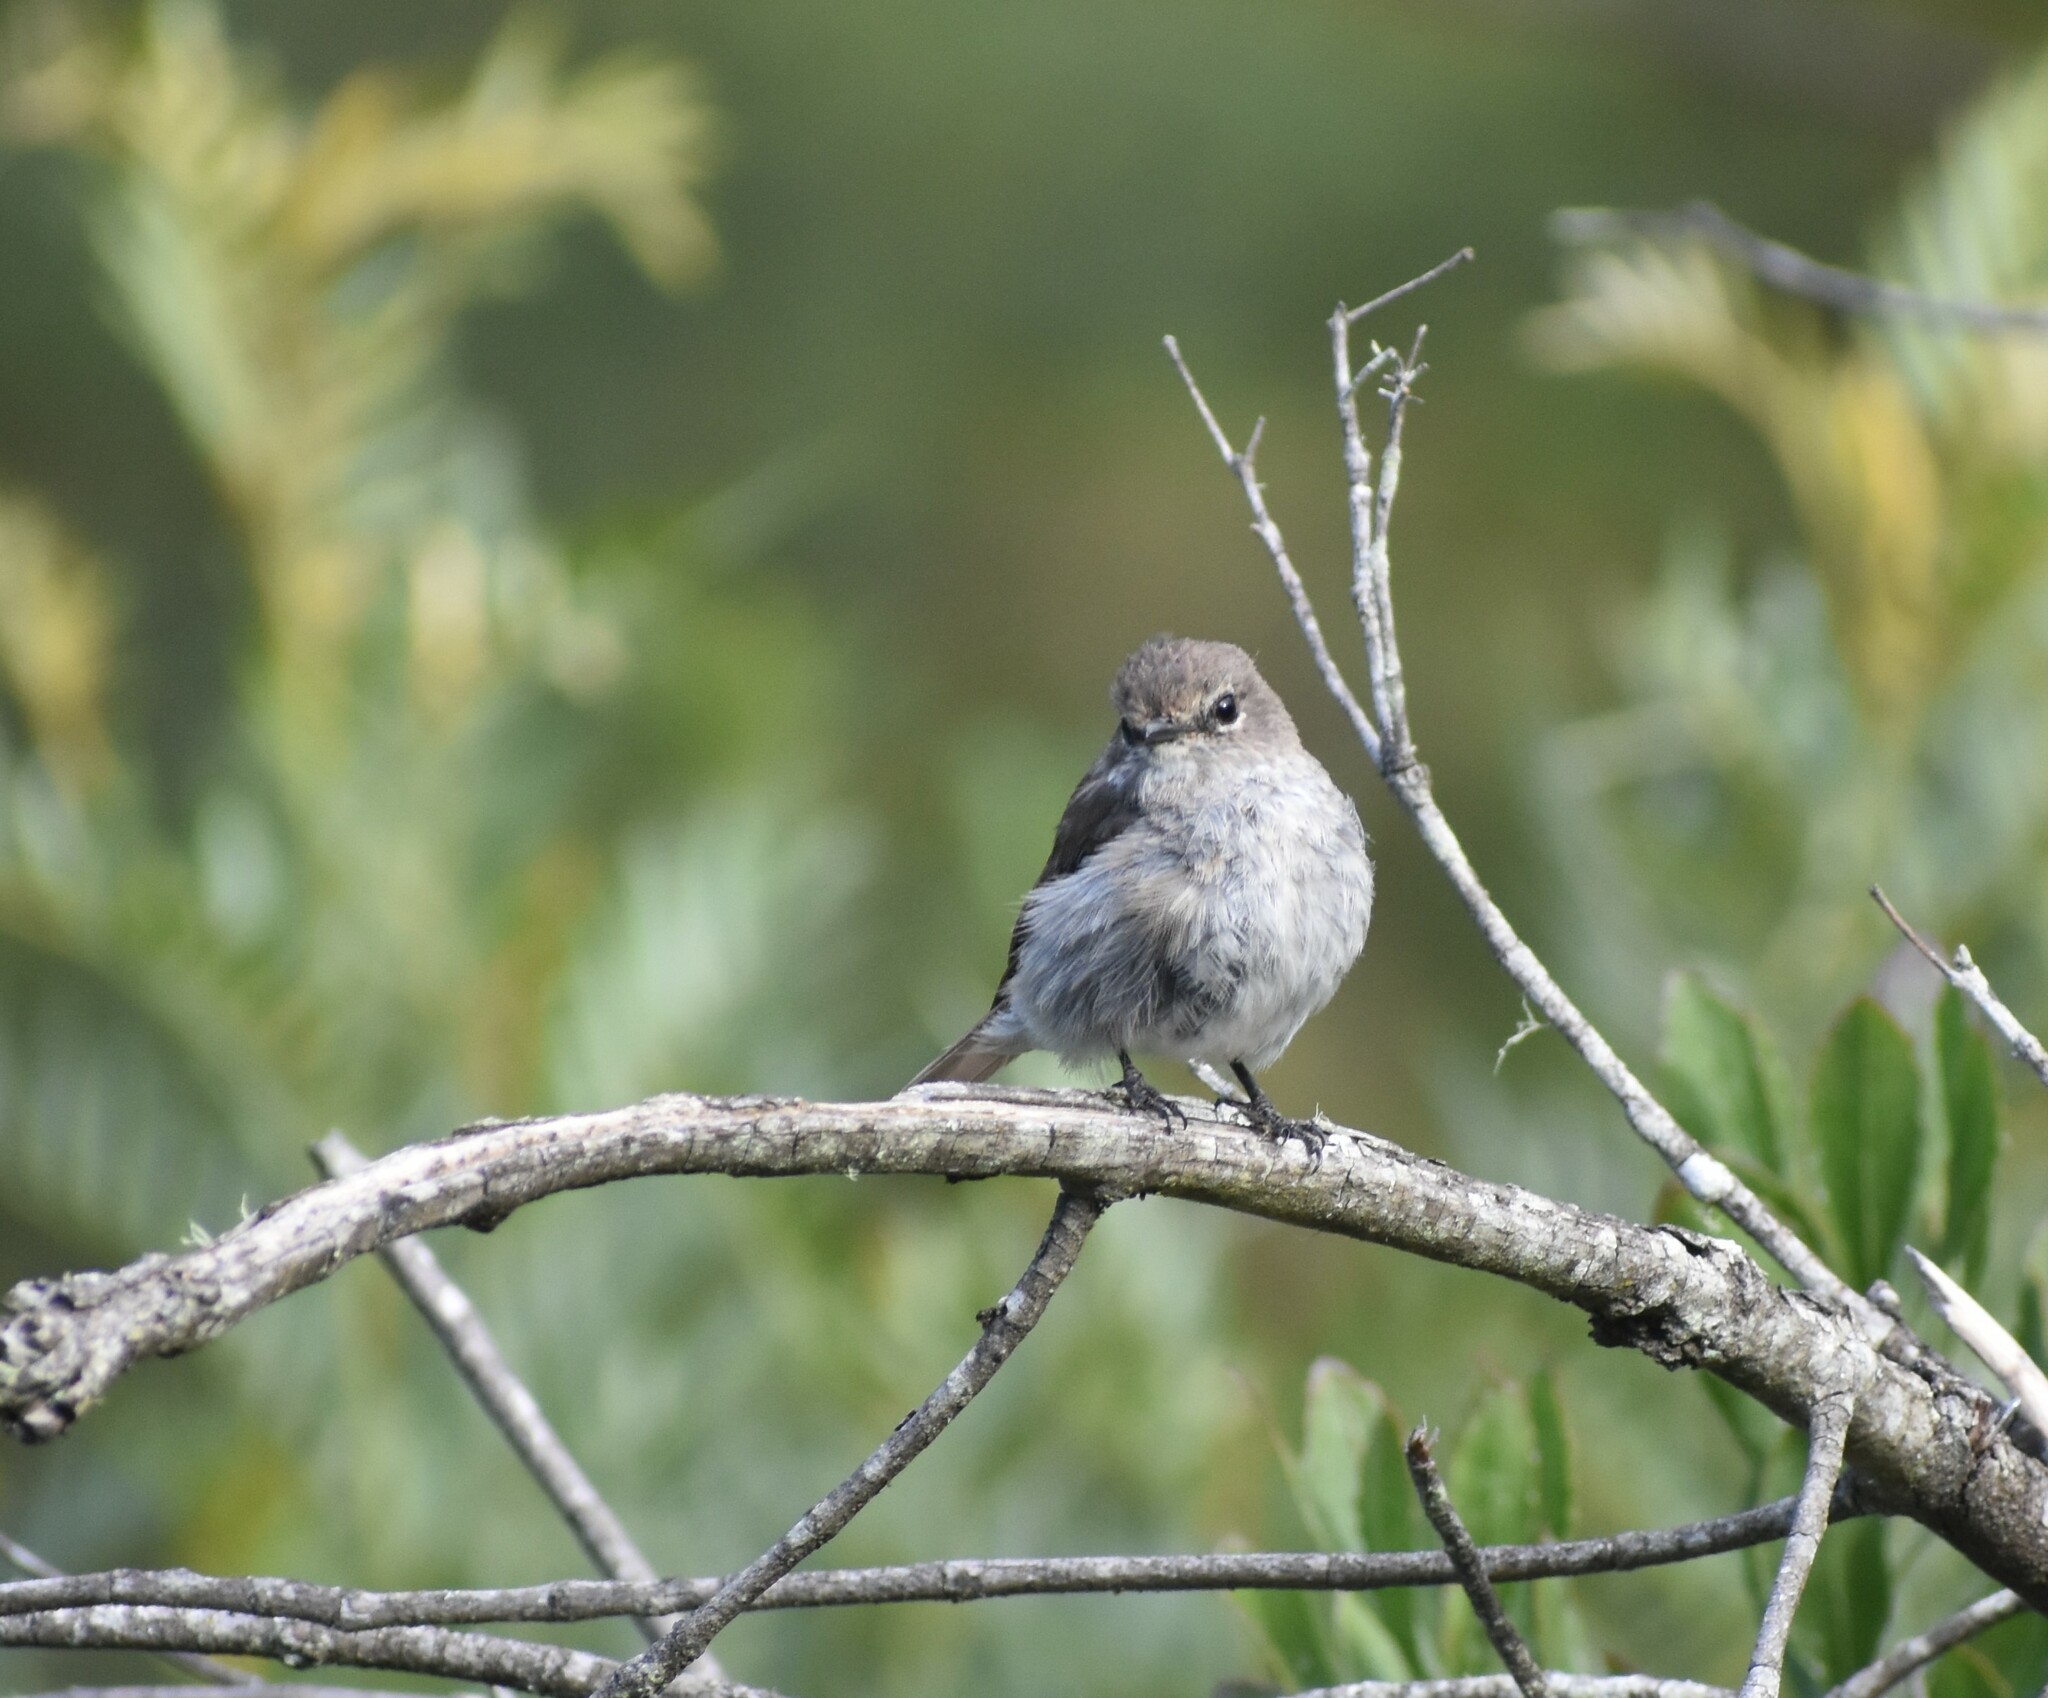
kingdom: Animalia
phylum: Chordata
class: Aves
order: Passeriformes
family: Muscicapidae
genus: Muscicapa
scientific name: Muscicapa adusta
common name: African dusky flycatcher
